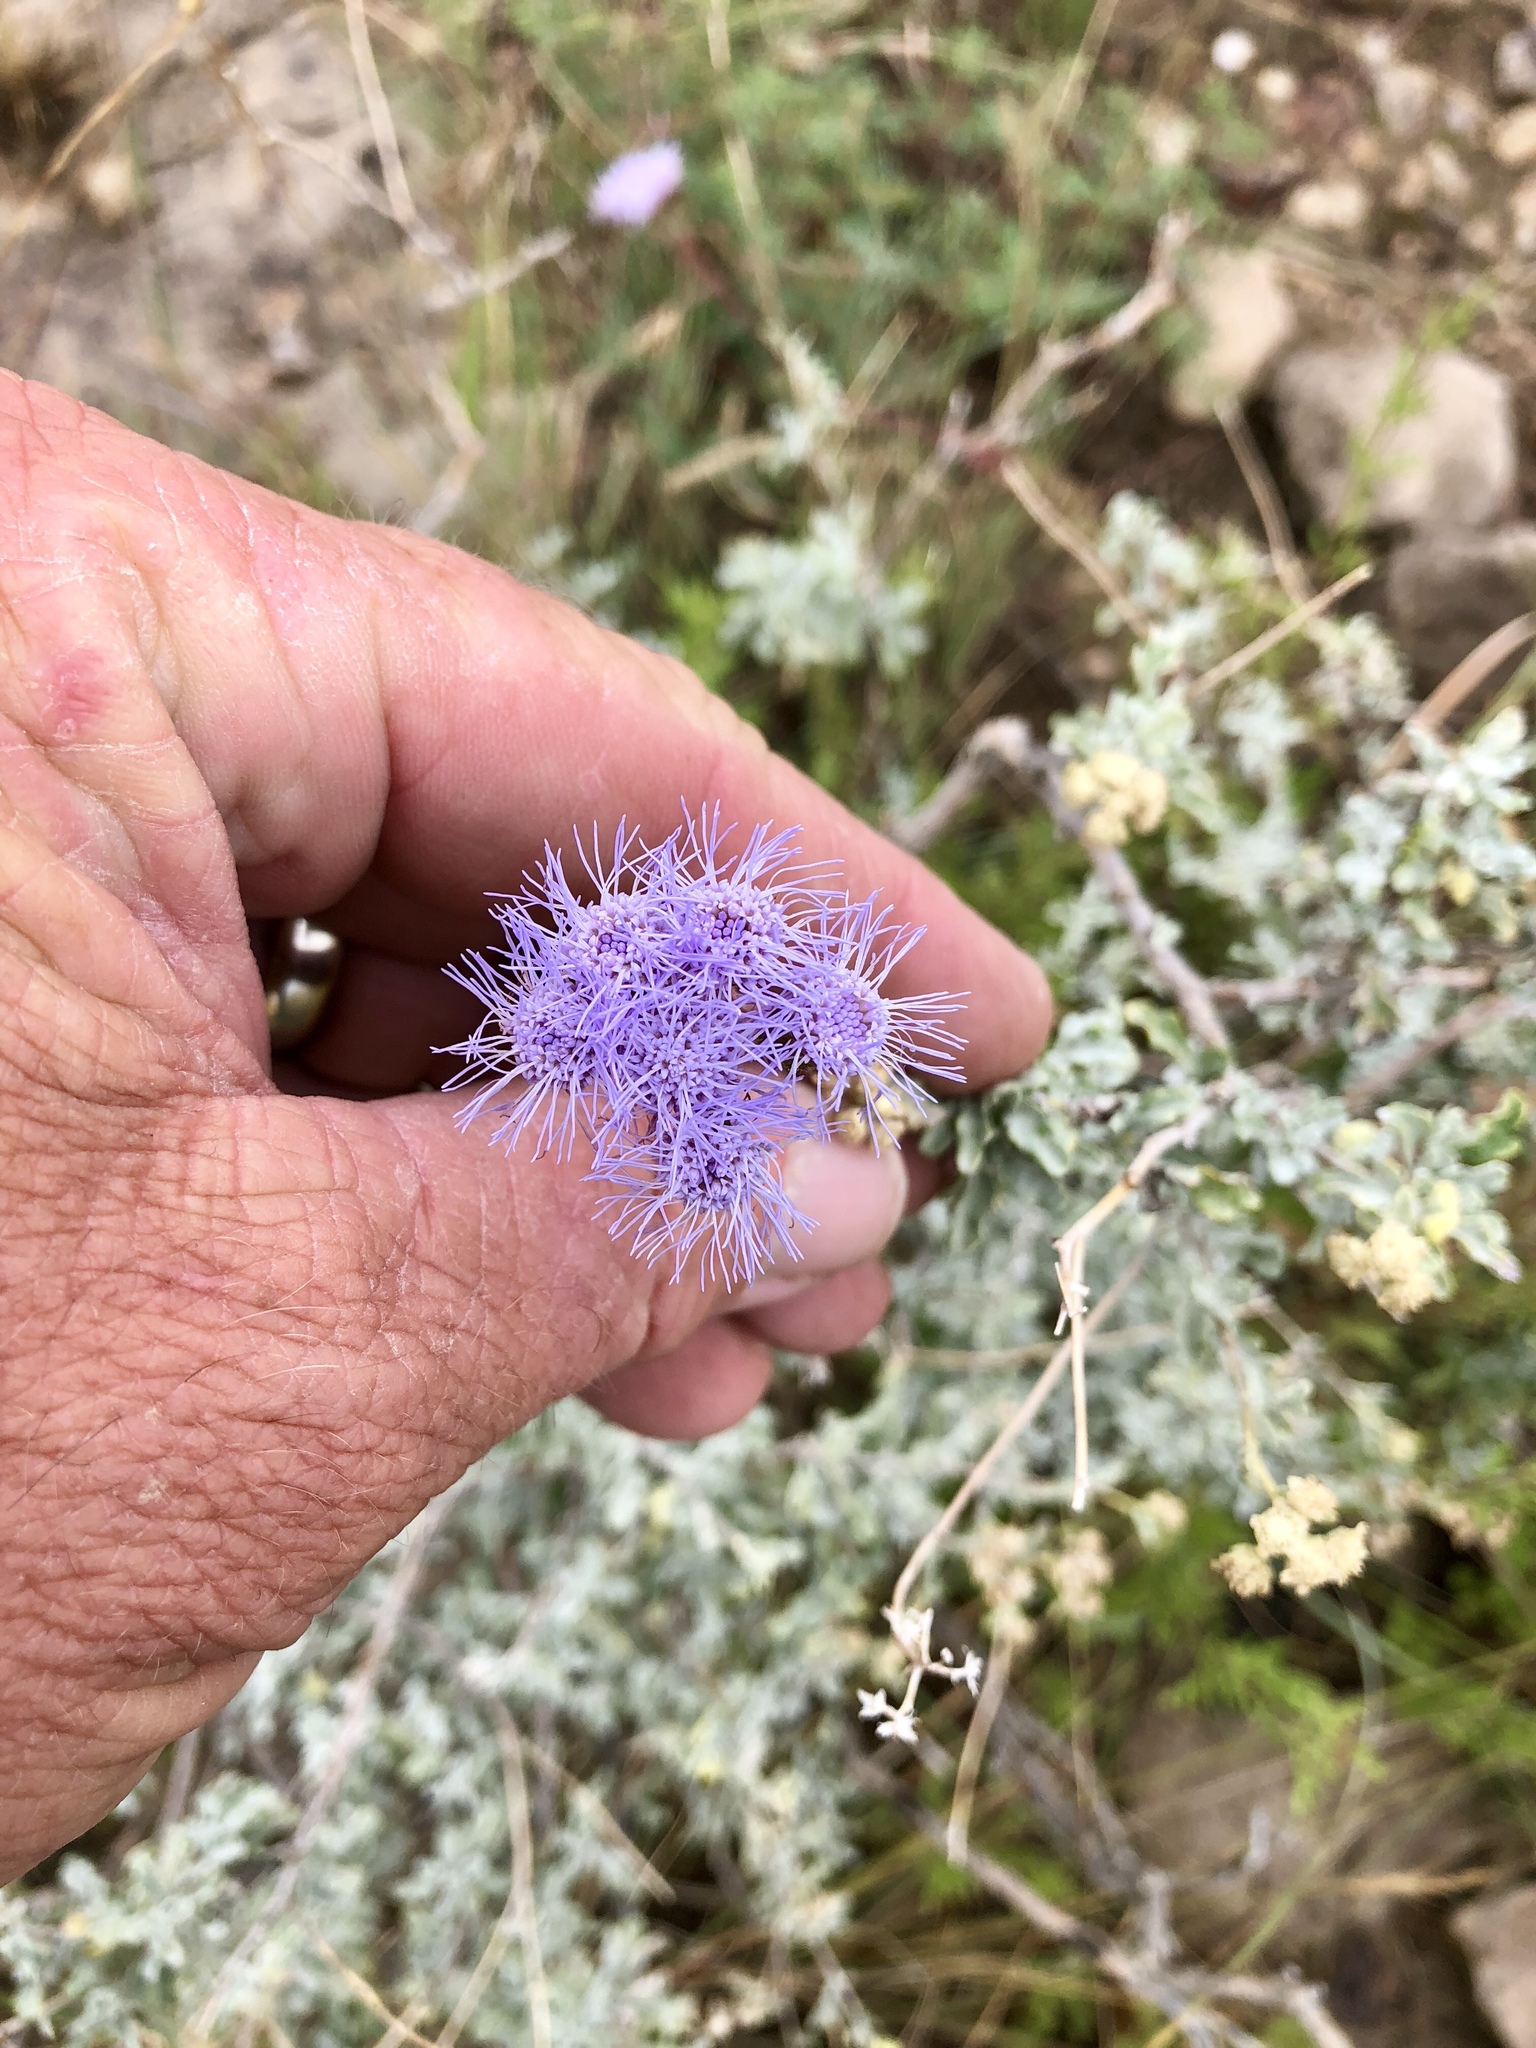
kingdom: Plantae
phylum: Tracheophyta
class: Magnoliopsida
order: Asterales
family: Asteraceae
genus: Conoclinium
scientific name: Conoclinium dissectum
